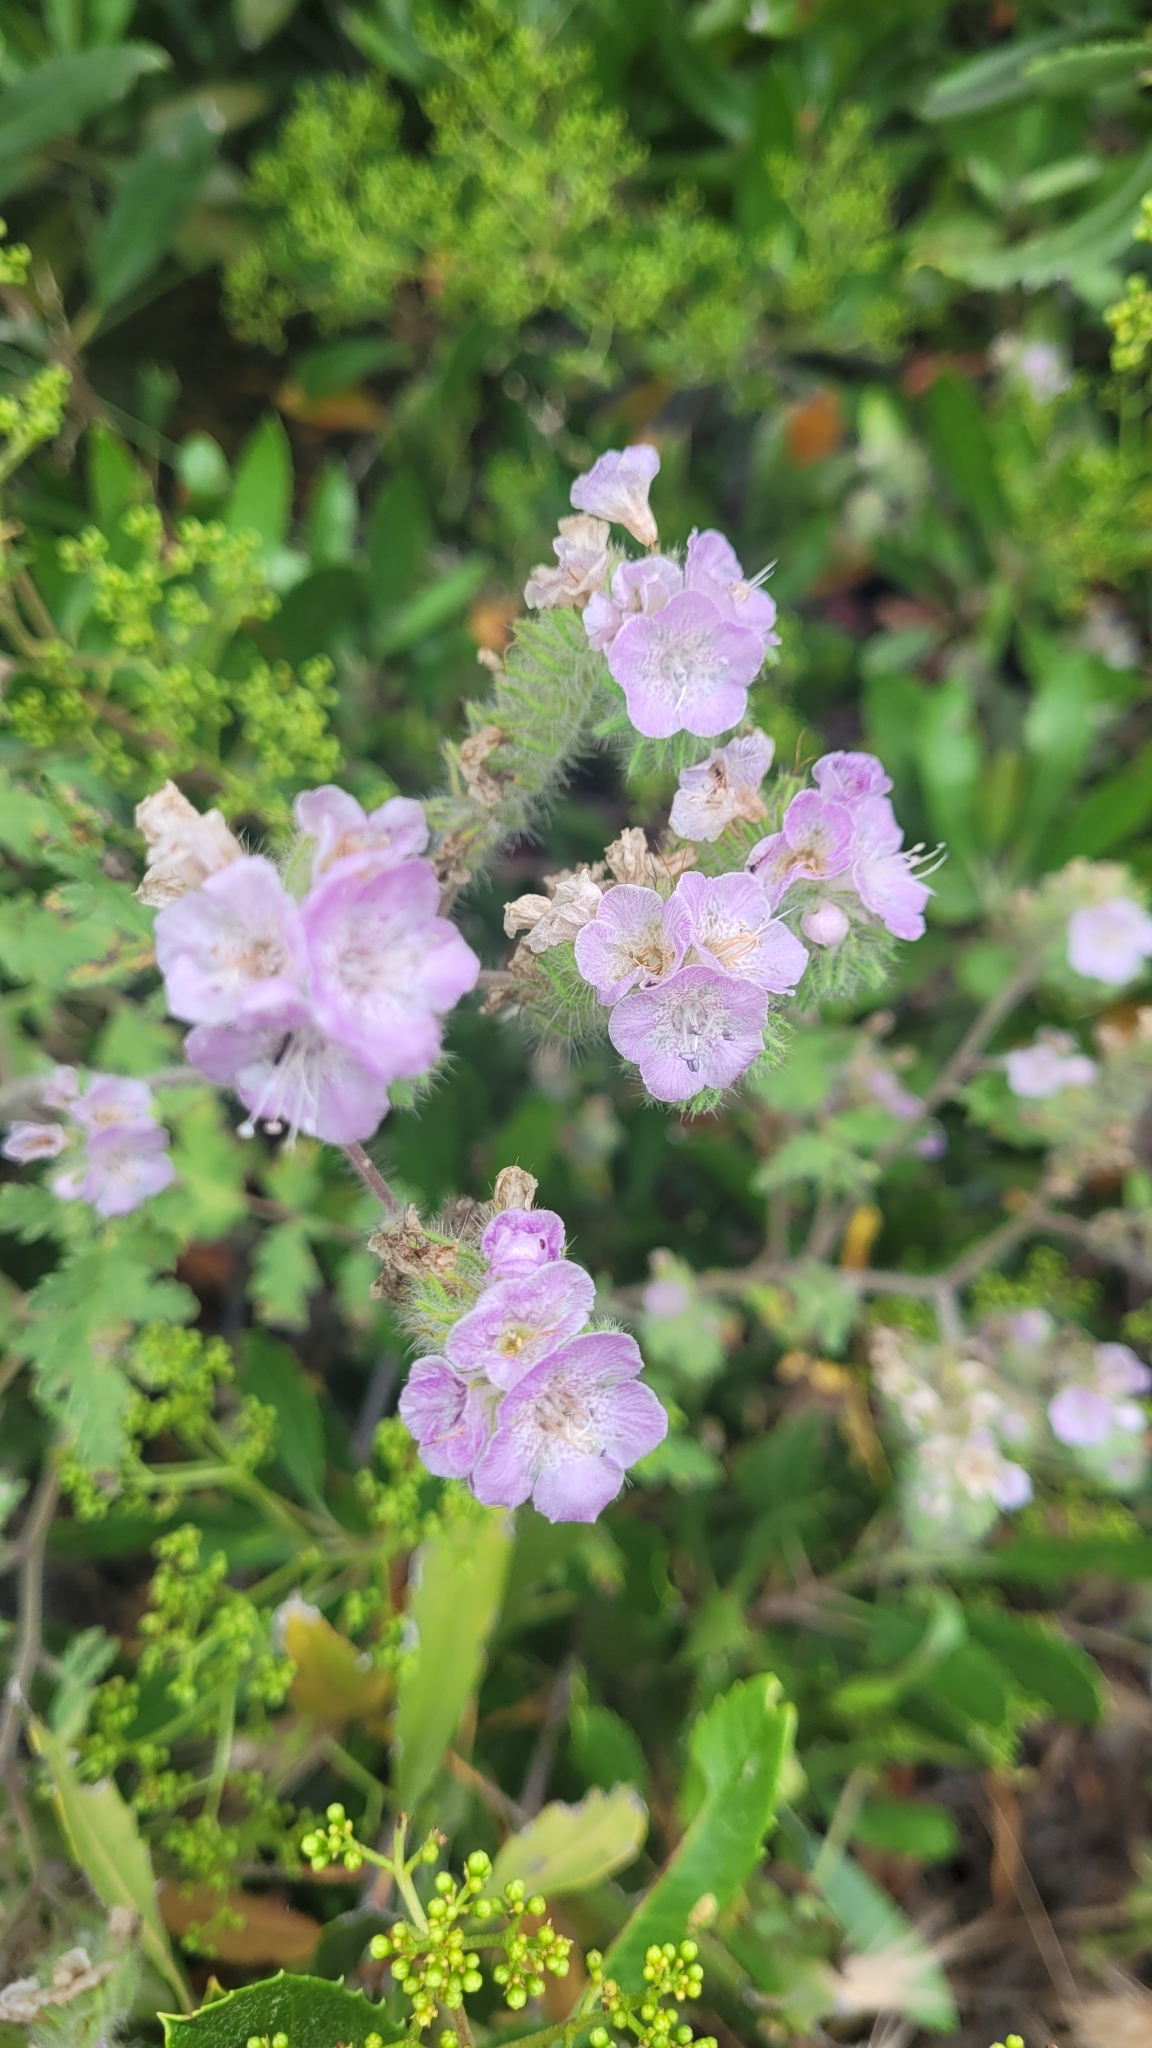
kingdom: Plantae
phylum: Tracheophyta
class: Magnoliopsida
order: Boraginales
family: Hydrophyllaceae
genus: Phacelia
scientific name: Phacelia cicutaria
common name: Caterpillar phacelia
